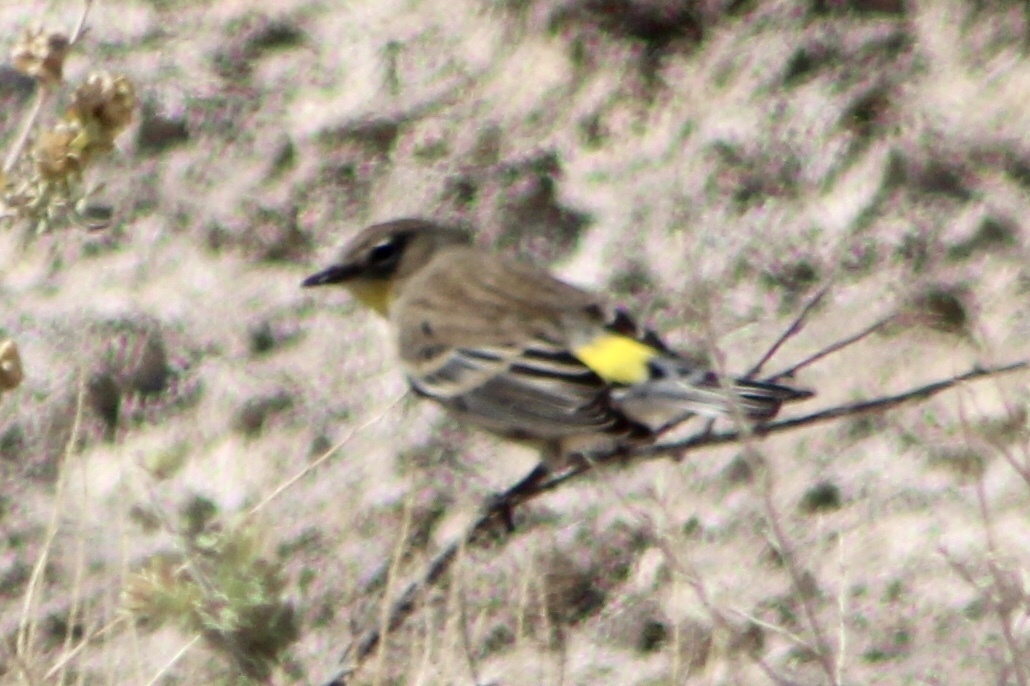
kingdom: Animalia
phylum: Chordata
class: Aves
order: Passeriformes
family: Parulidae
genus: Setophaga
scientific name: Setophaga auduboni
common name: Audubon's warbler
